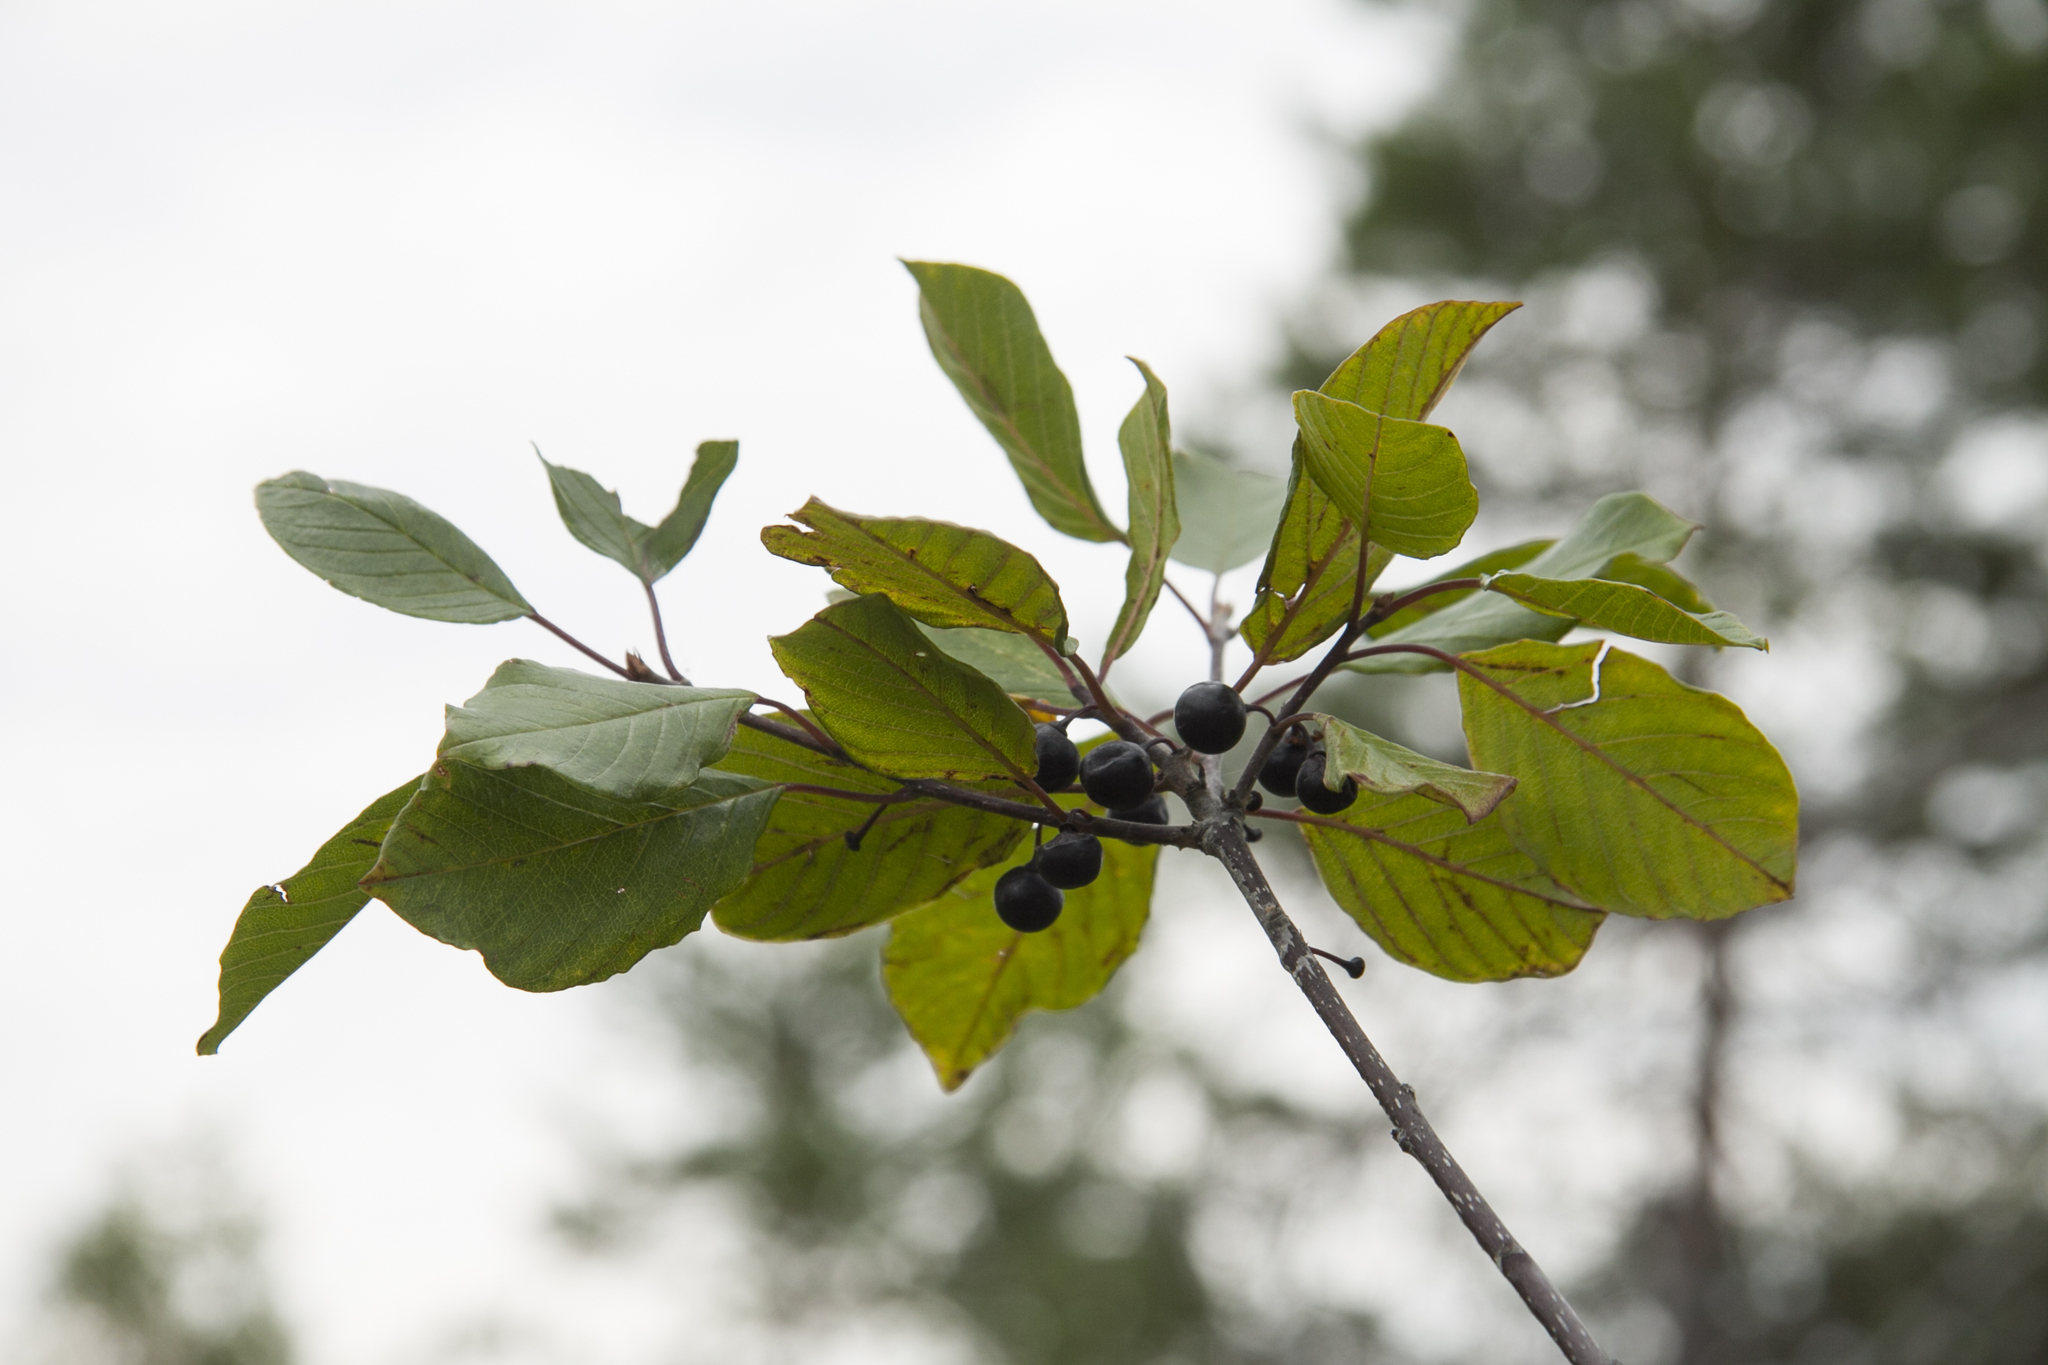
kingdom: Plantae
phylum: Tracheophyta
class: Magnoliopsida
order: Rosales
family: Rhamnaceae
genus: Frangula
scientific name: Frangula alnus
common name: Alder buckthorn
